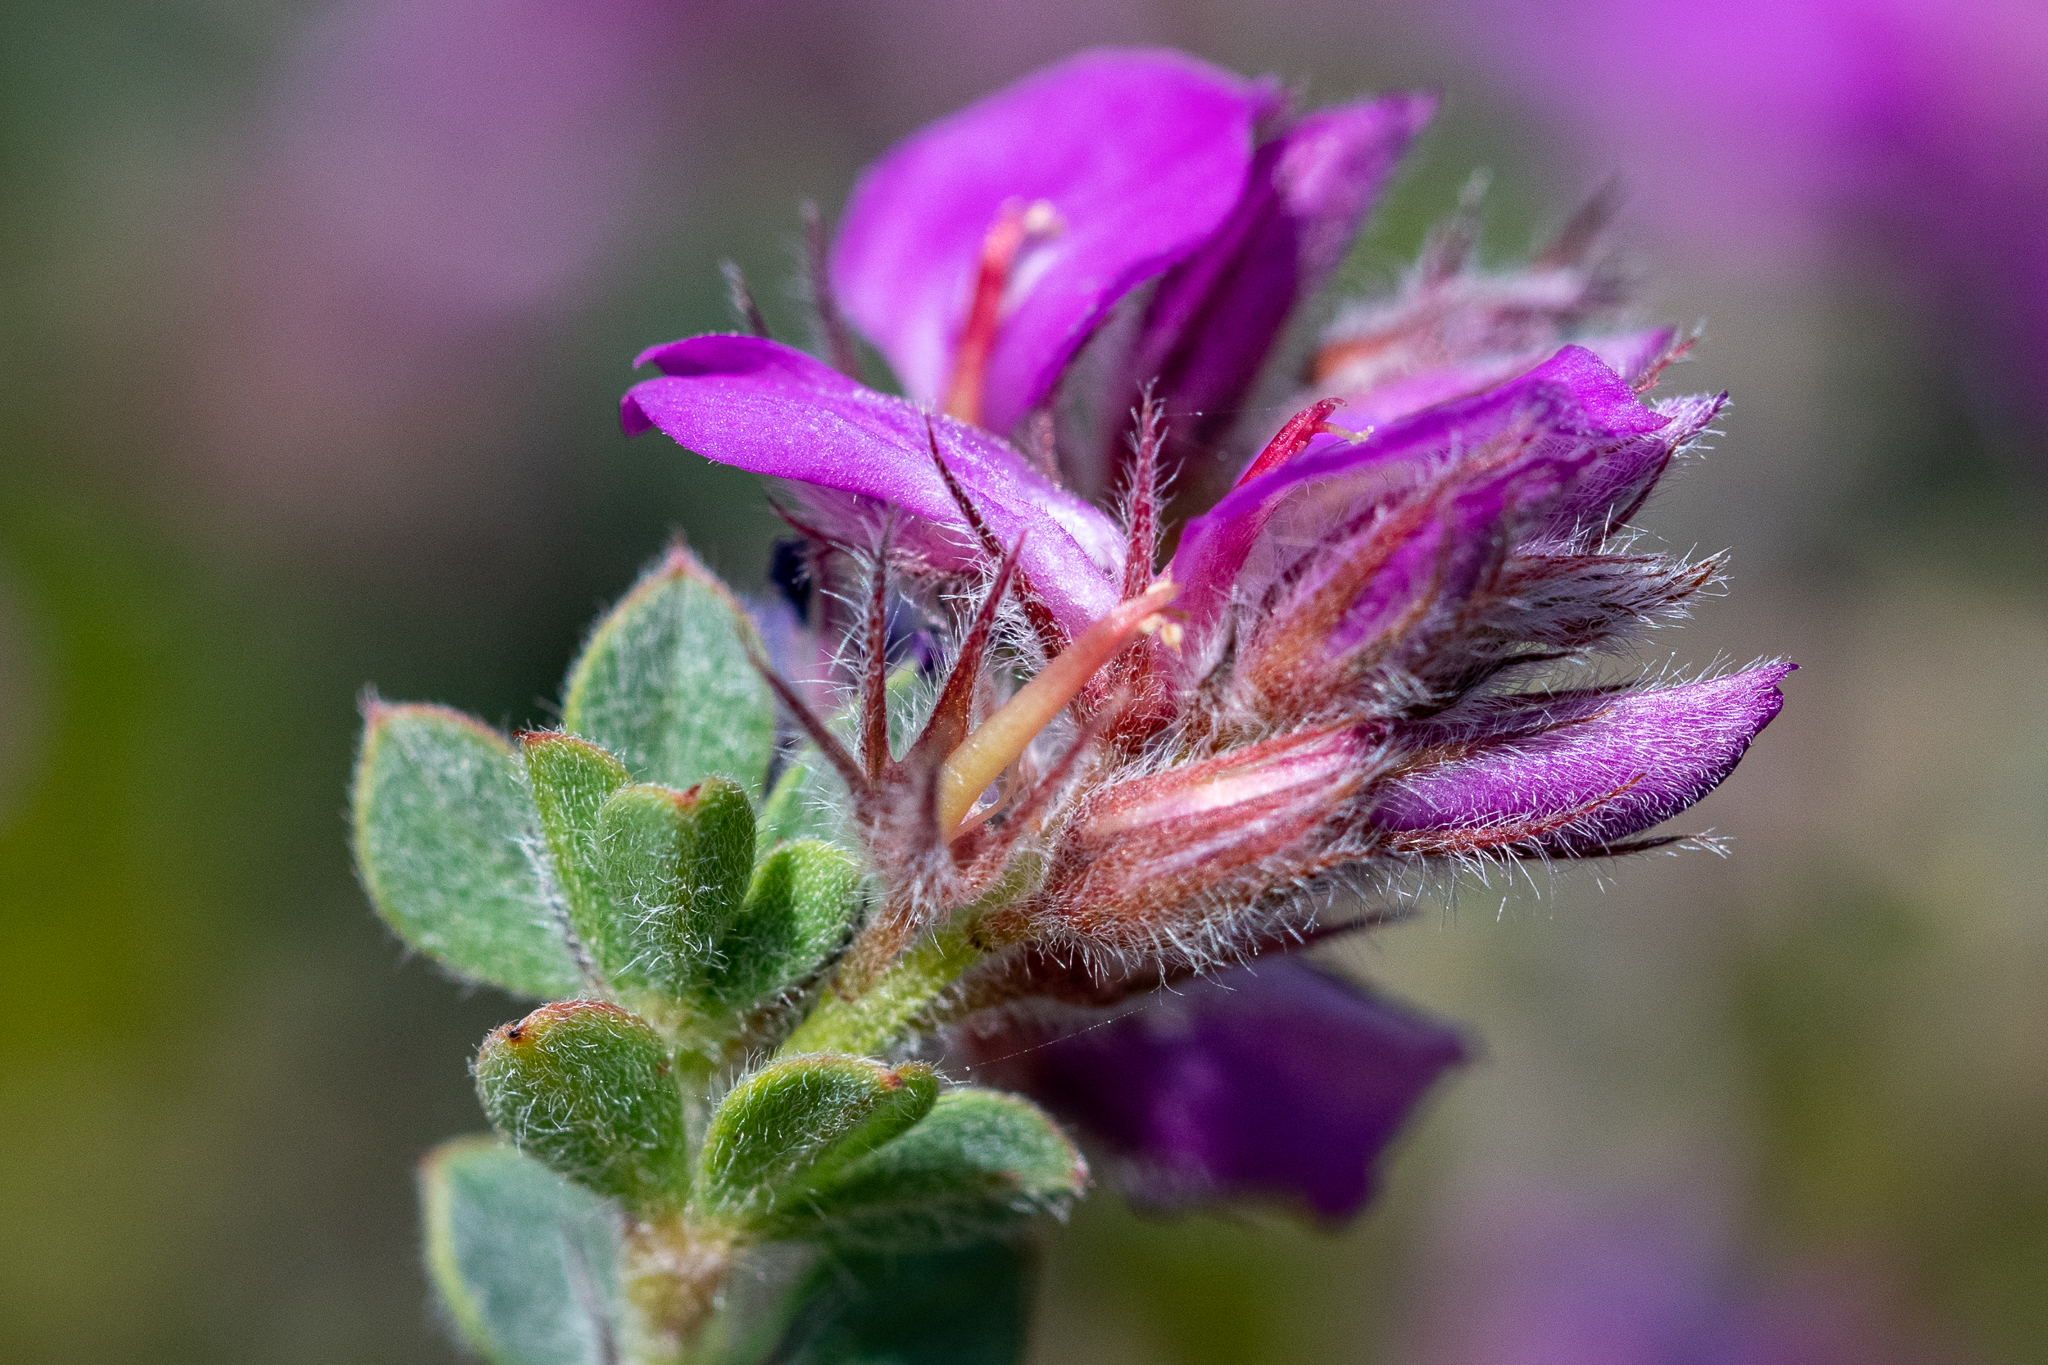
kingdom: Plantae
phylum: Tracheophyta
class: Magnoliopsida
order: Fabales
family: Fabaceae
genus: Indigofera
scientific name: Indigofera glomerata
